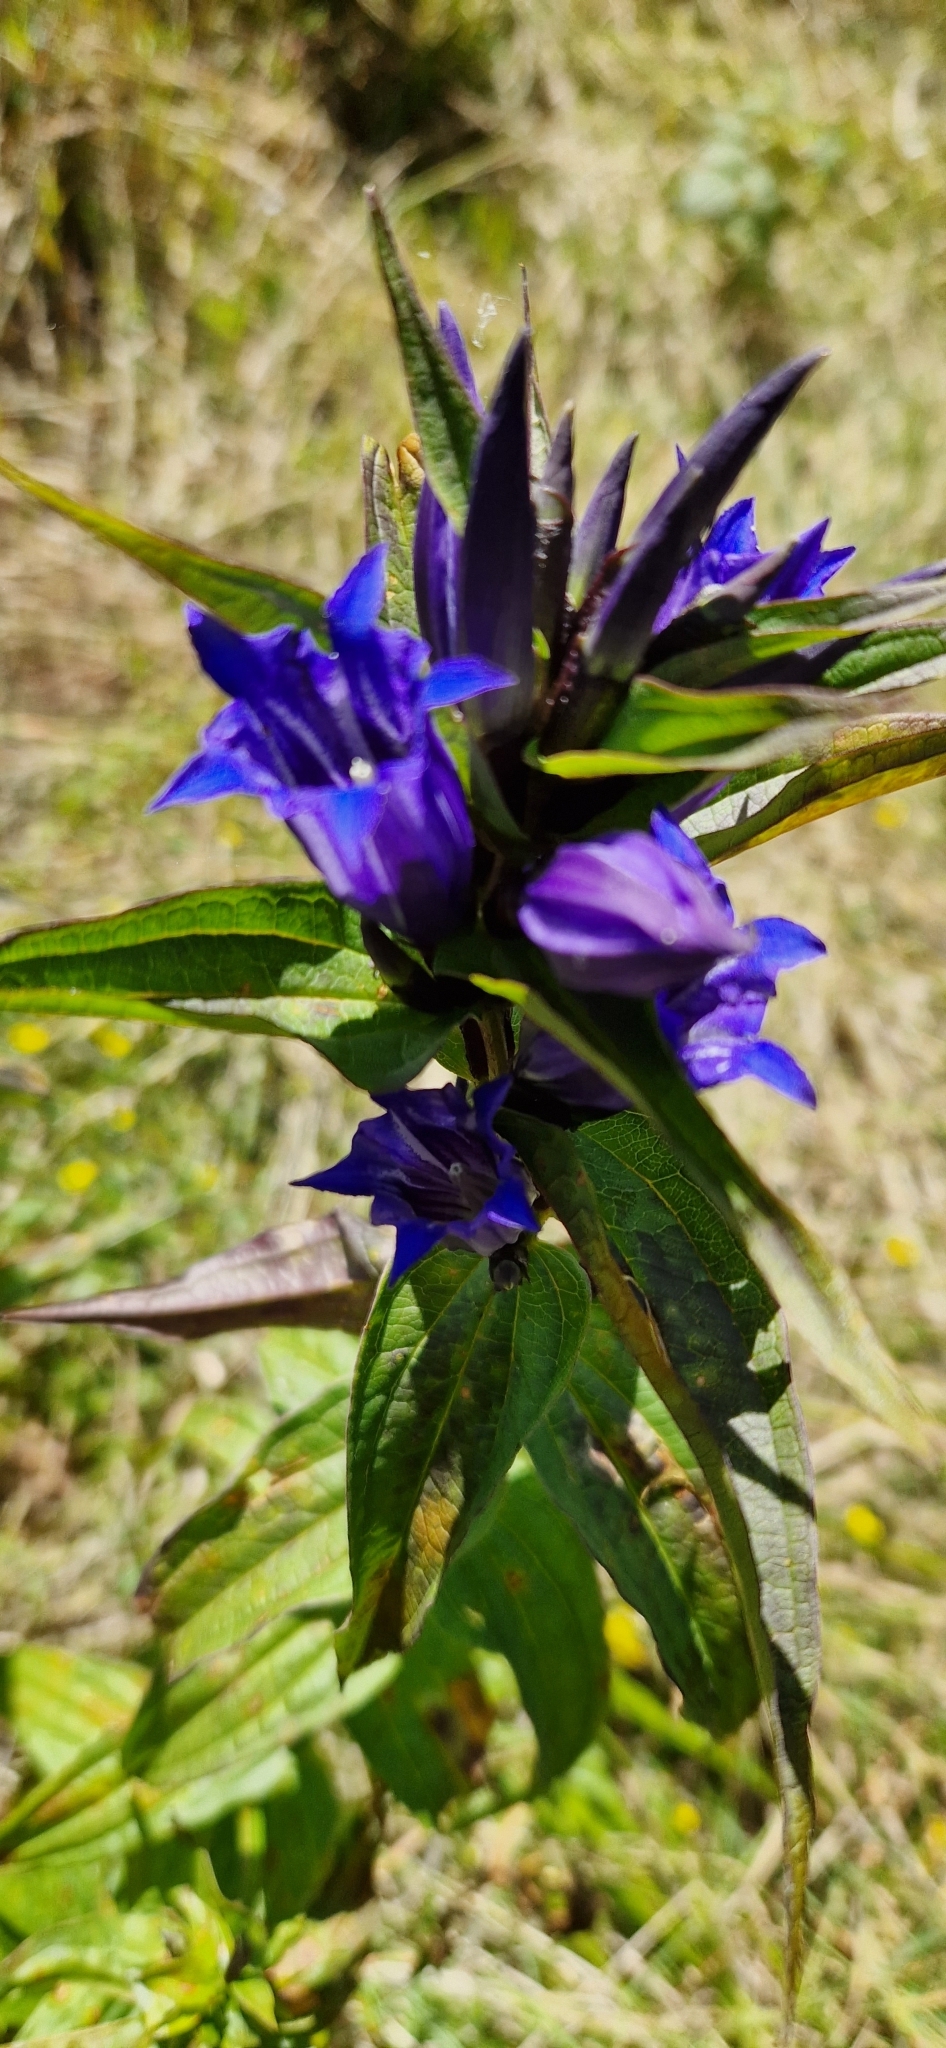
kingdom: Plantae
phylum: Tracheophyta
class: Magnoliopsida
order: Gentianales
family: Gentianaceae
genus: Gentiana
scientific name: Gentiana asclepiadea
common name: Willow gentian
